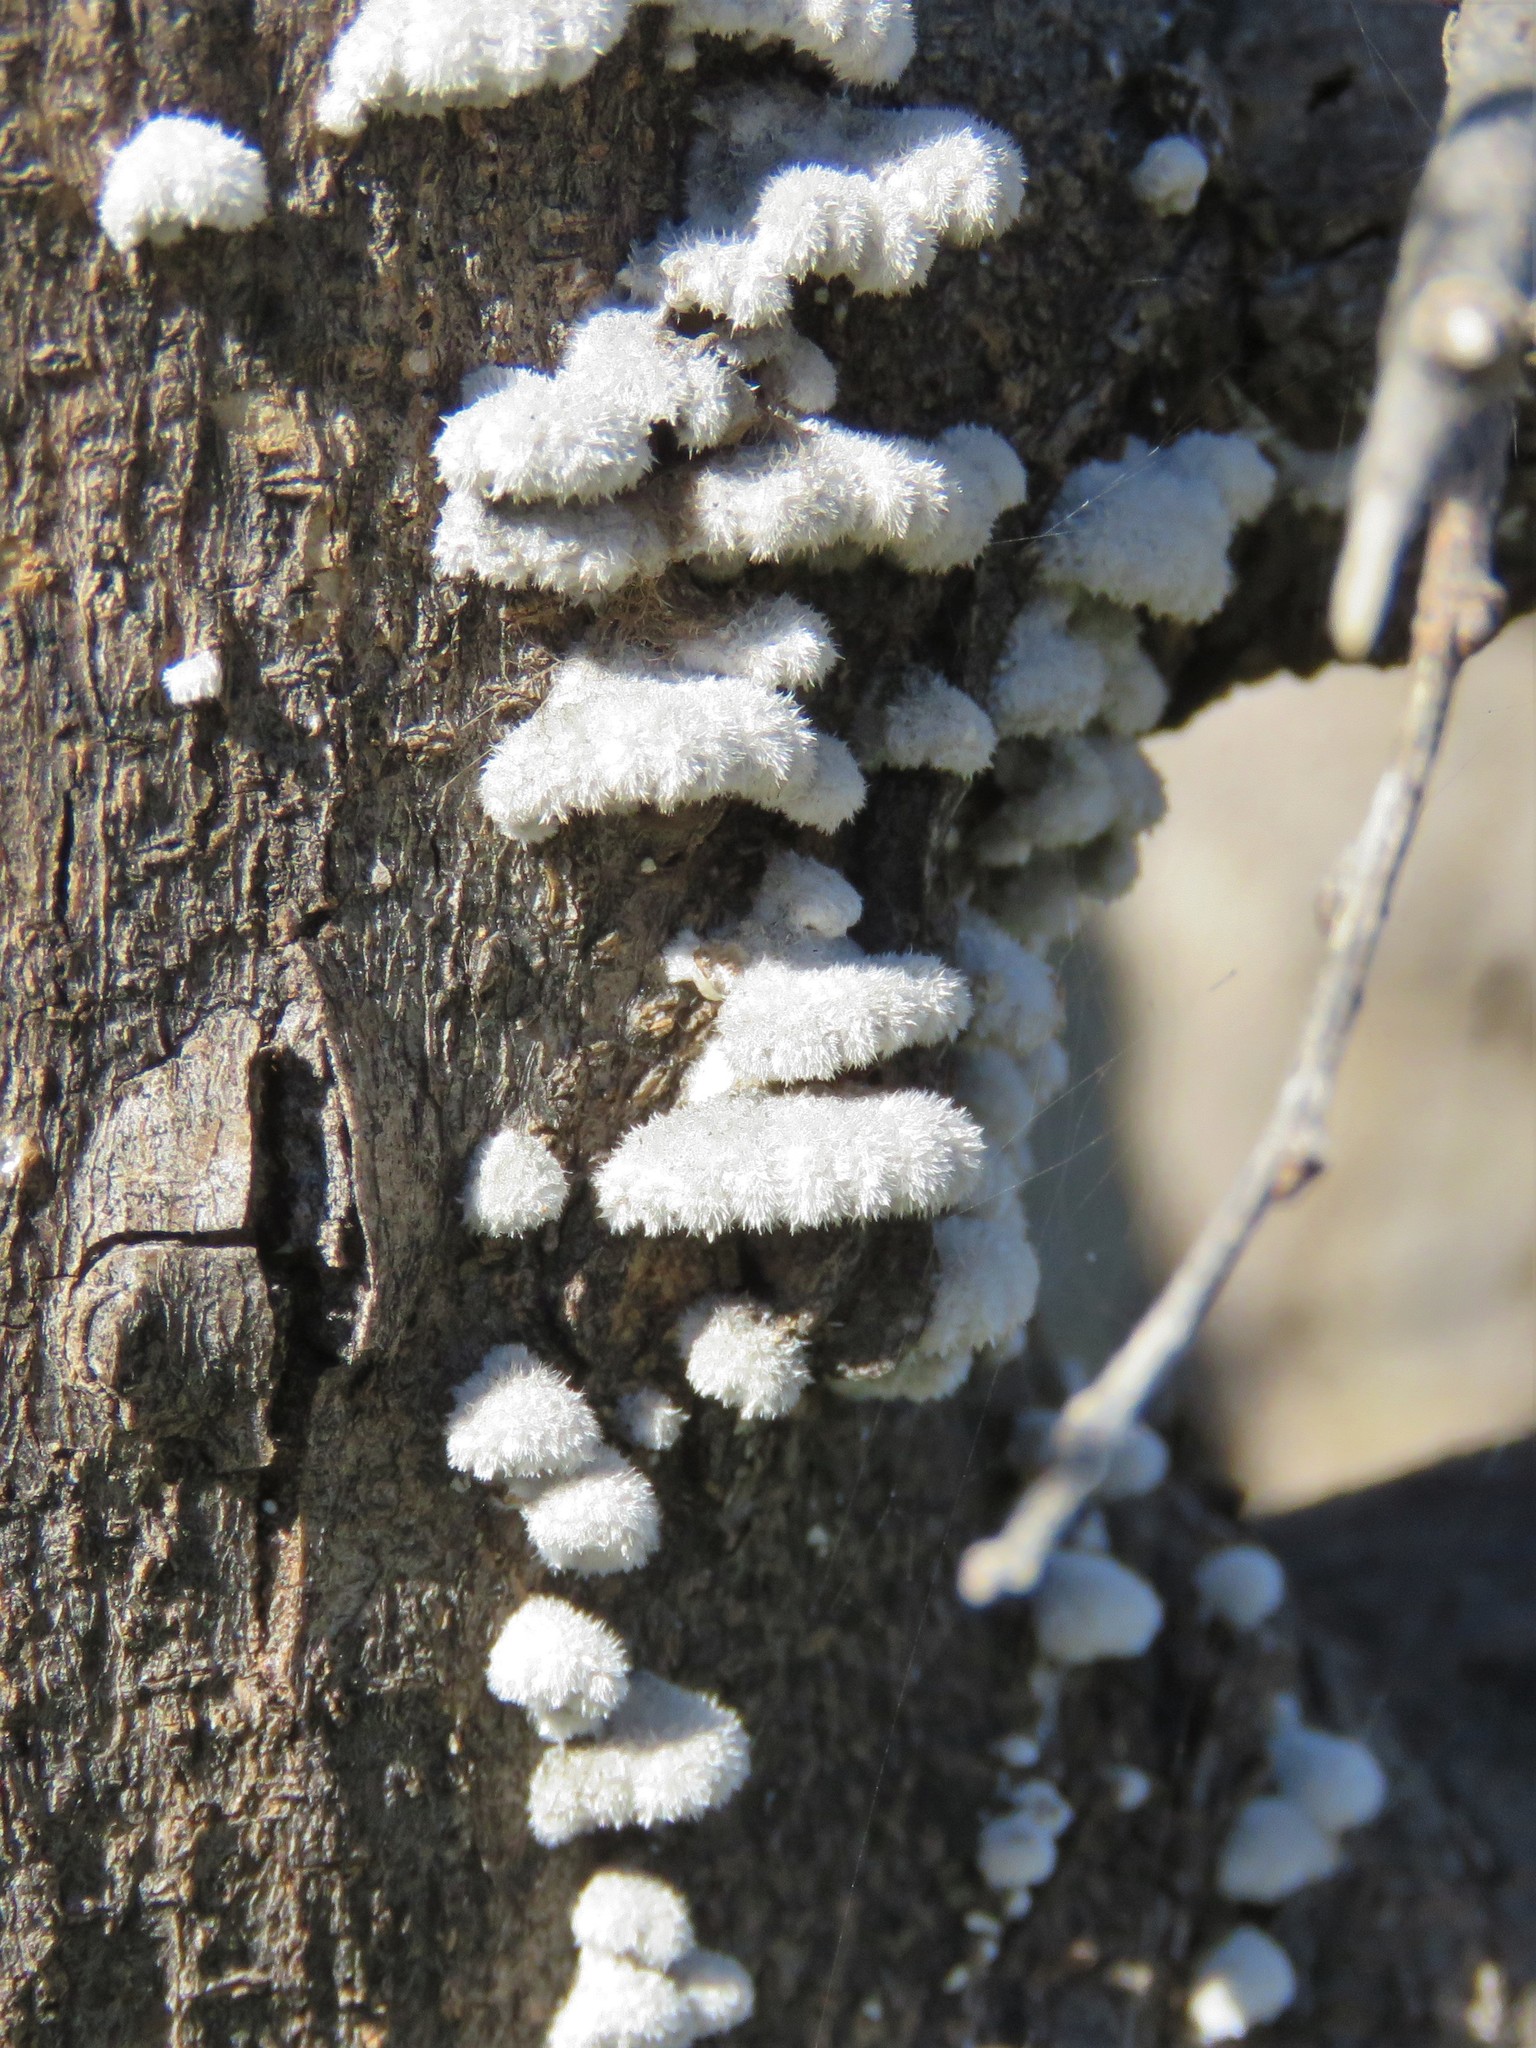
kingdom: Fungi
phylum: Basidiomycota
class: Agaricomycetes
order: Agaricales
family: Schizophyllaceae
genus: Schizophyllum
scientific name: Schizophyllum commune
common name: Common porecrust
